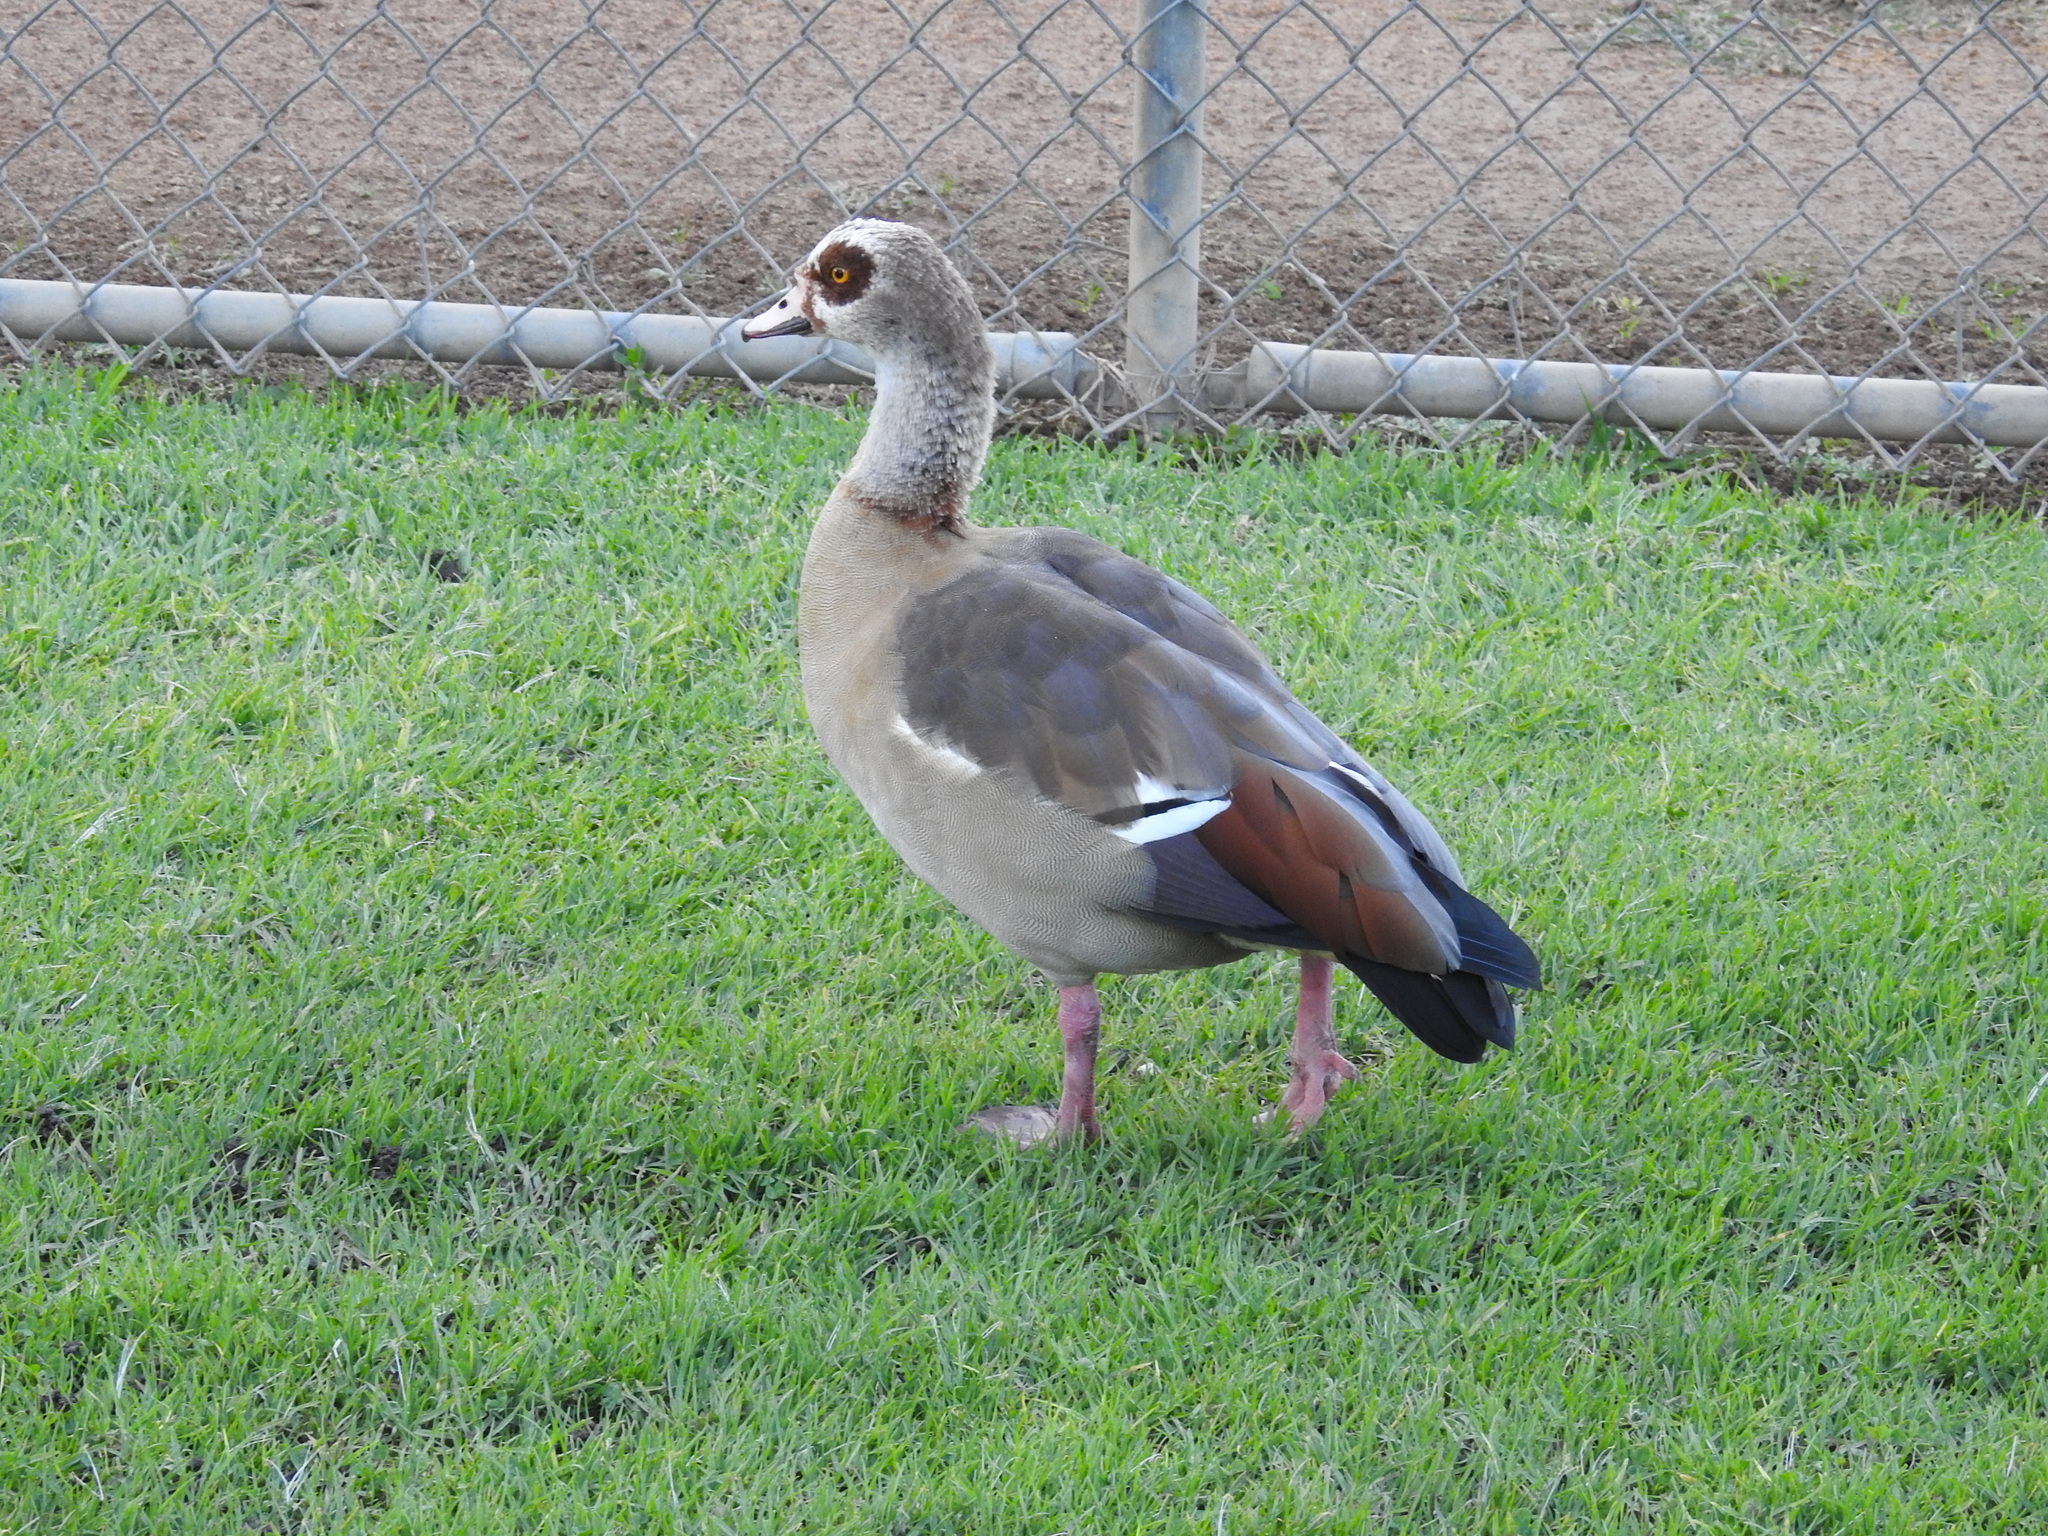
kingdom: Animalia
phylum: Chordata
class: Aves
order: Anseriformes
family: Anatidae
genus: Alopochen
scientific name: Alopochen aegyptiaca
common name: Egyptian goose
